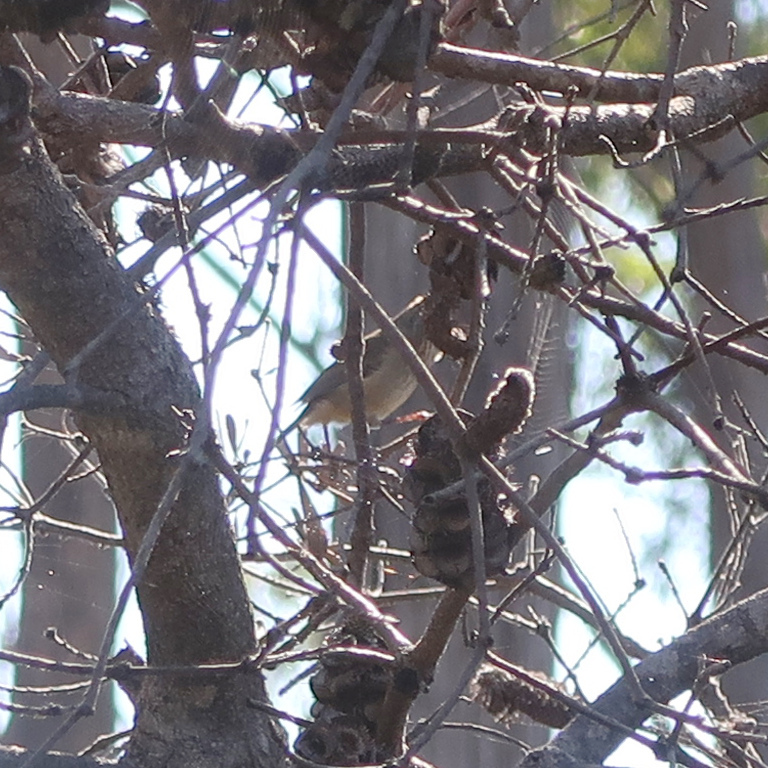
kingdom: Animalia
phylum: Chordata
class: Aves
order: Passeriformes
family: Acanthizidae
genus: Acanthiza
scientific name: Acanthiza pusilla
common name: Brown thornbill
